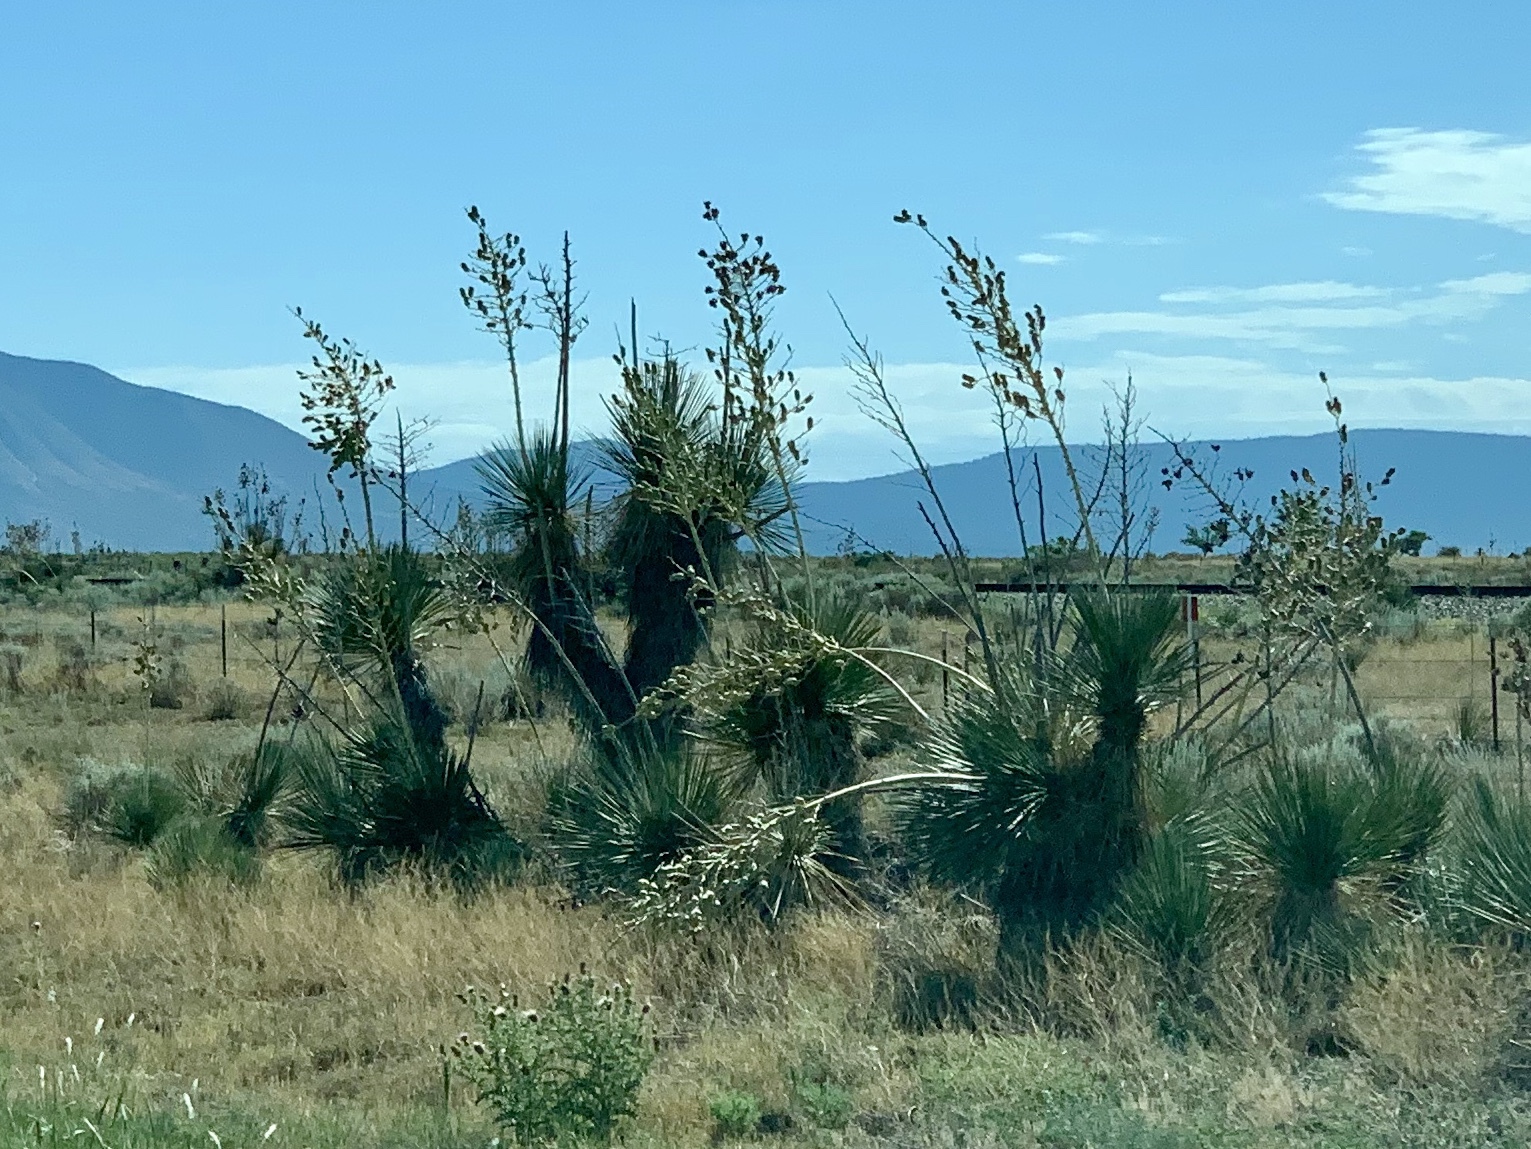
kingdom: Plantae
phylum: Tracheophyta
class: Liliopsida
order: Asparagales
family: Asparagaceae
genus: Yucca
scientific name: Yucca elata
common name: Palmella
